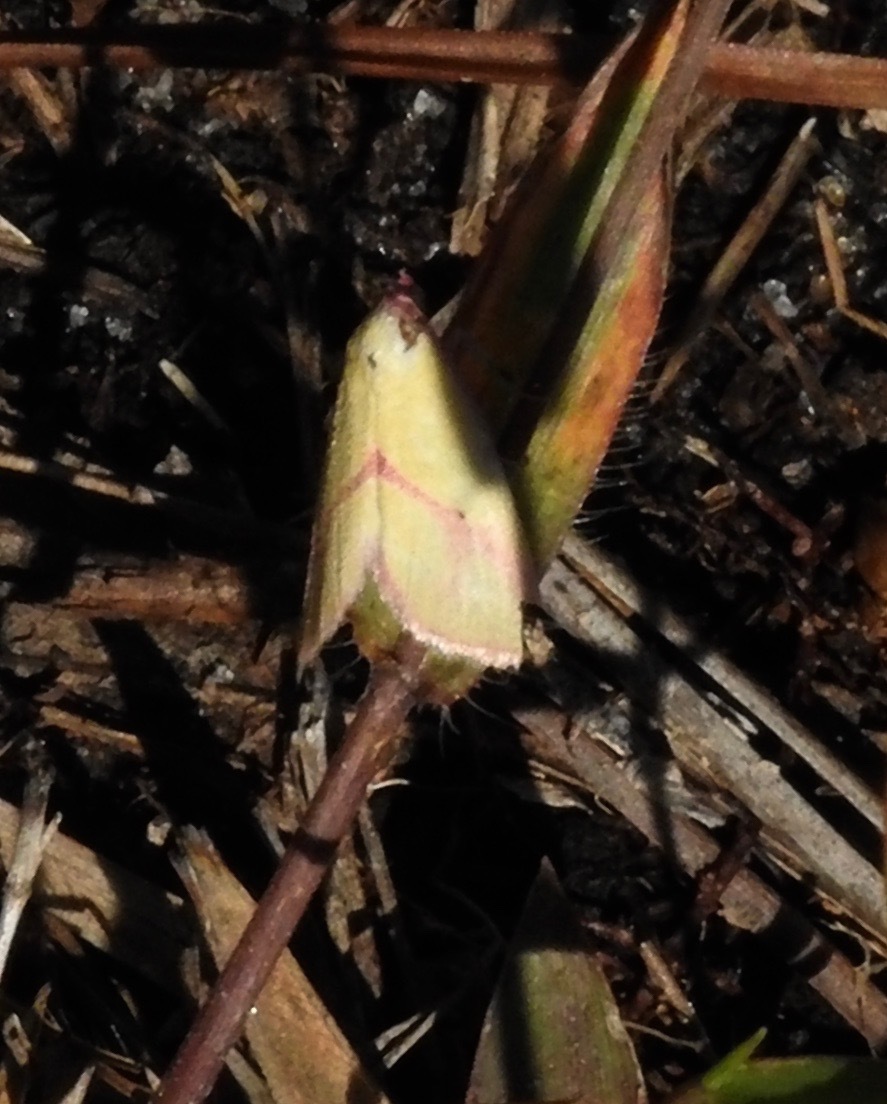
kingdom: Animalia
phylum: Arthropoda
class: Insecta
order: Lepidoptera
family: Erebidae
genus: Phytometra
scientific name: Phytometra ernestinana
